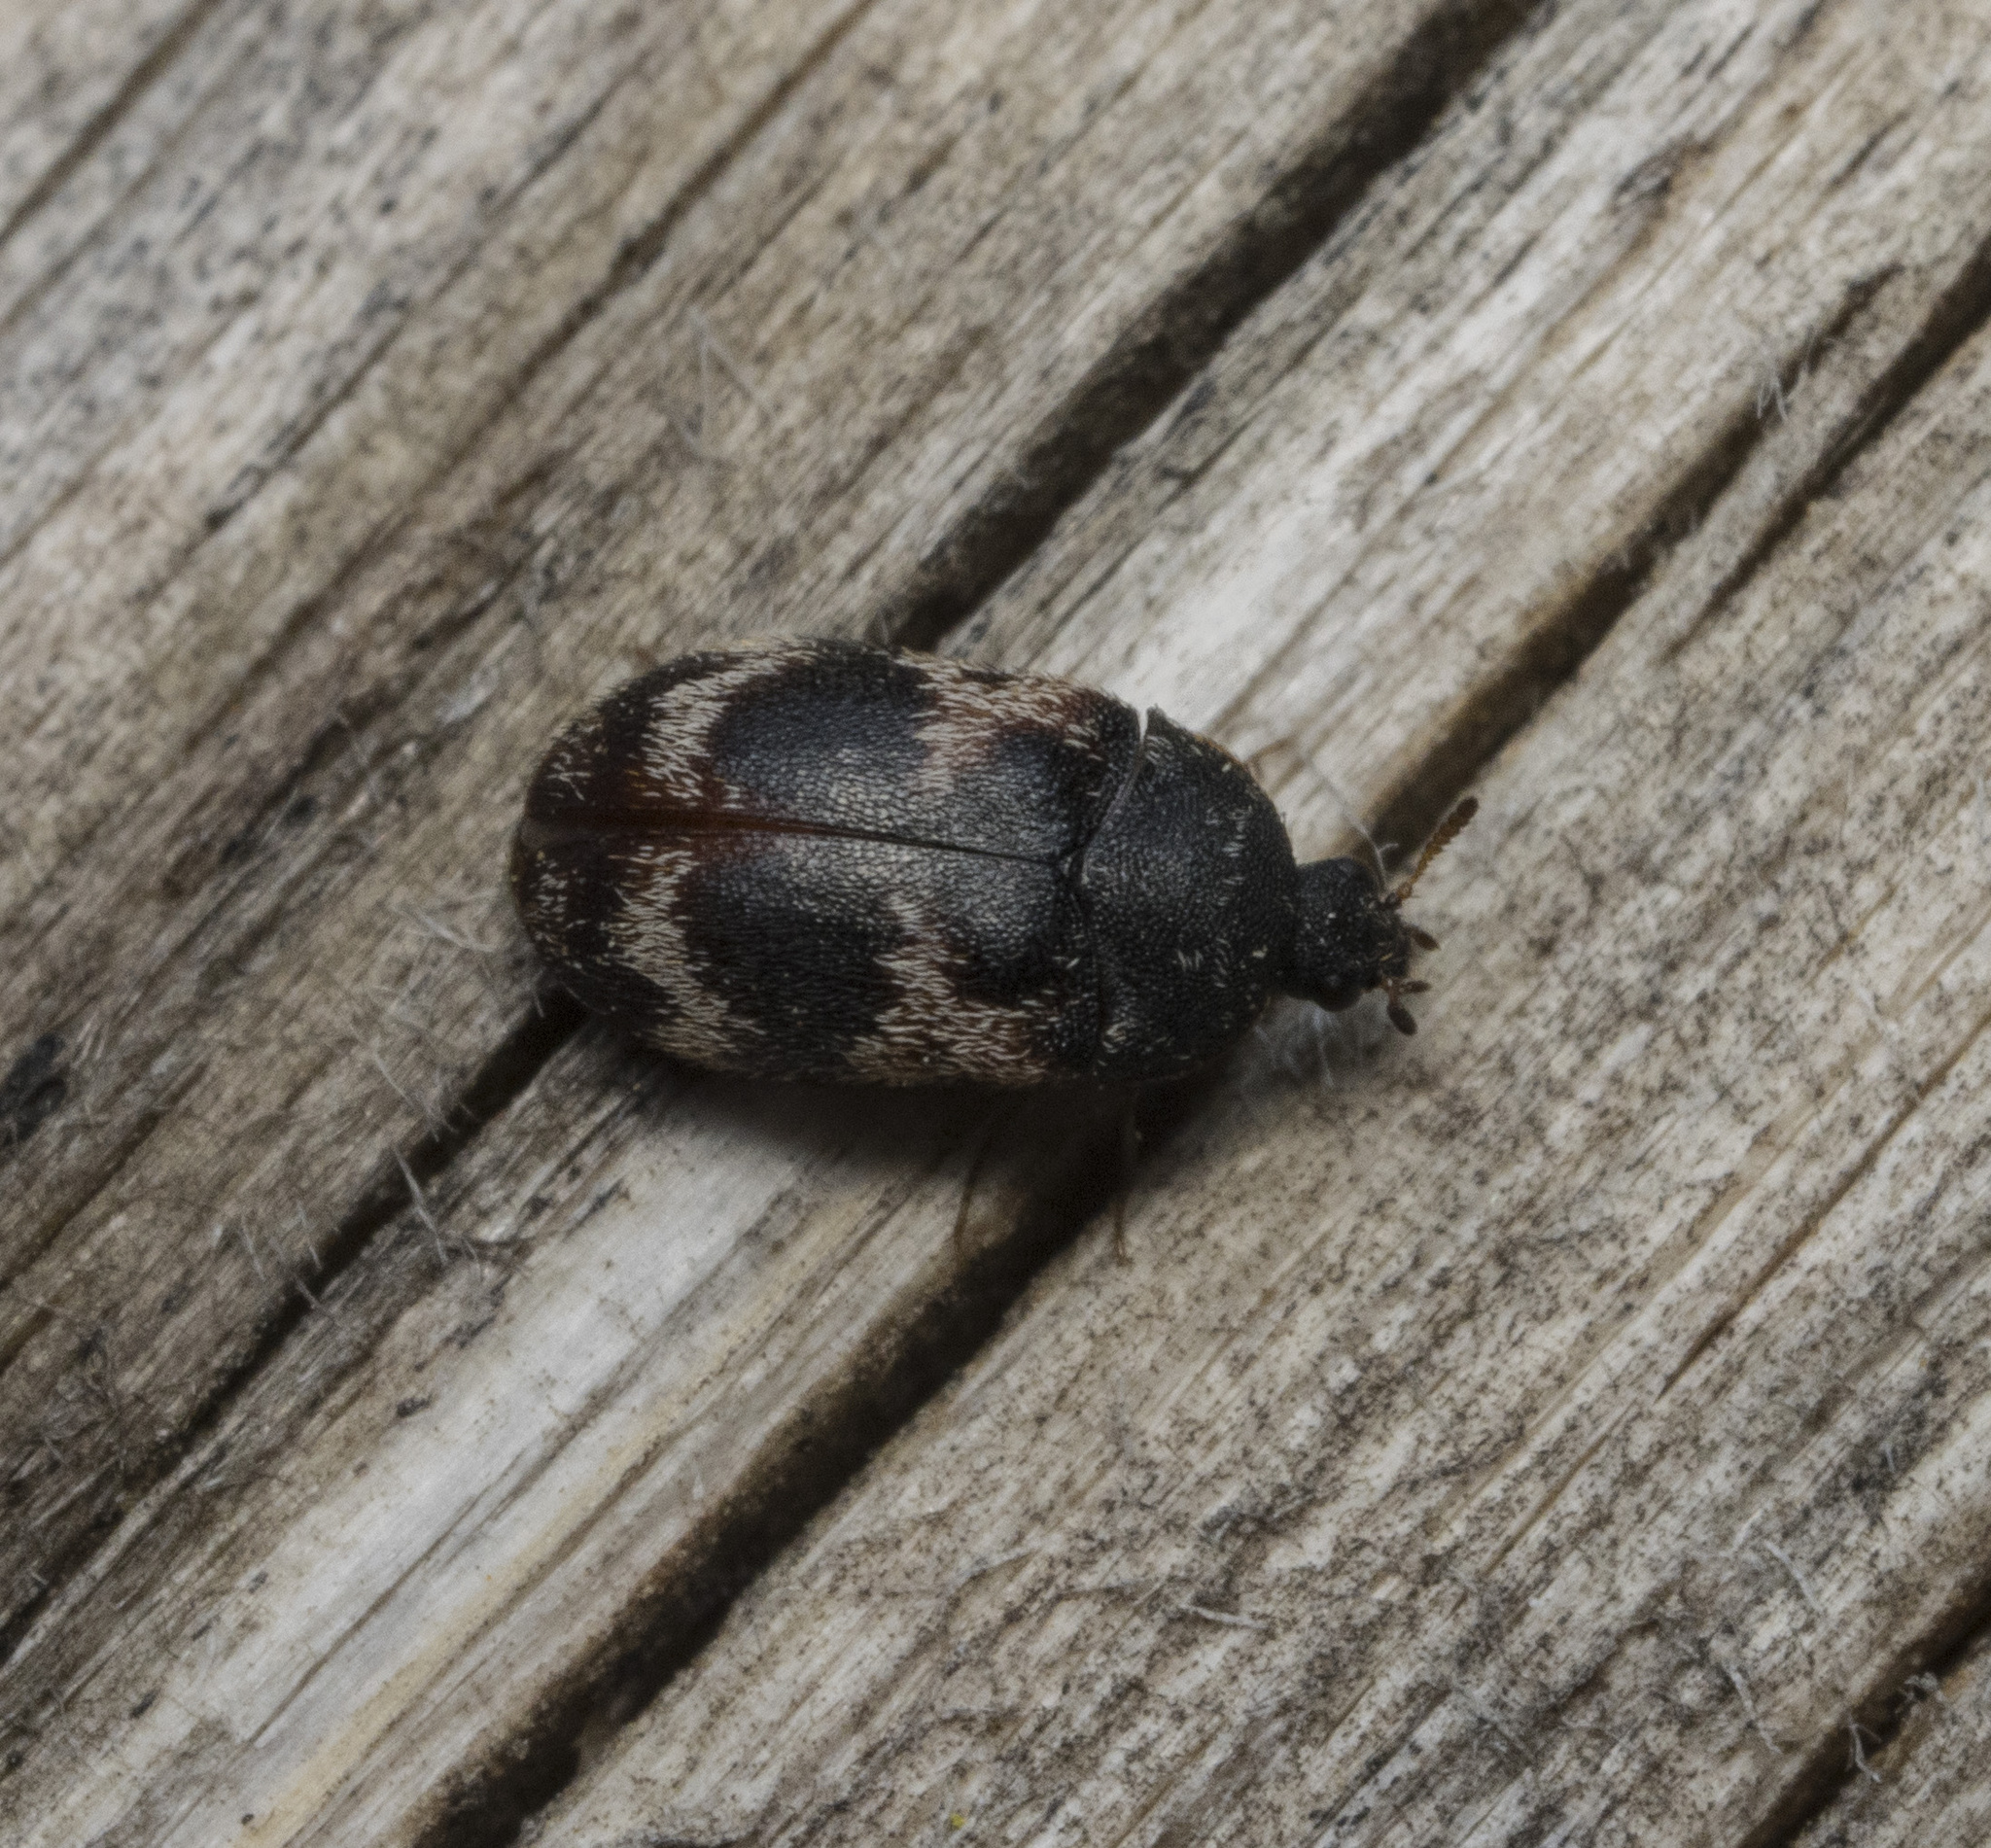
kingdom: Animalia
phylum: Arthropoda
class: Insecta
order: Coleoptera
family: Dermestidae
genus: Trogoderma
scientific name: Trogoderma angustum
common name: Skin beetle
